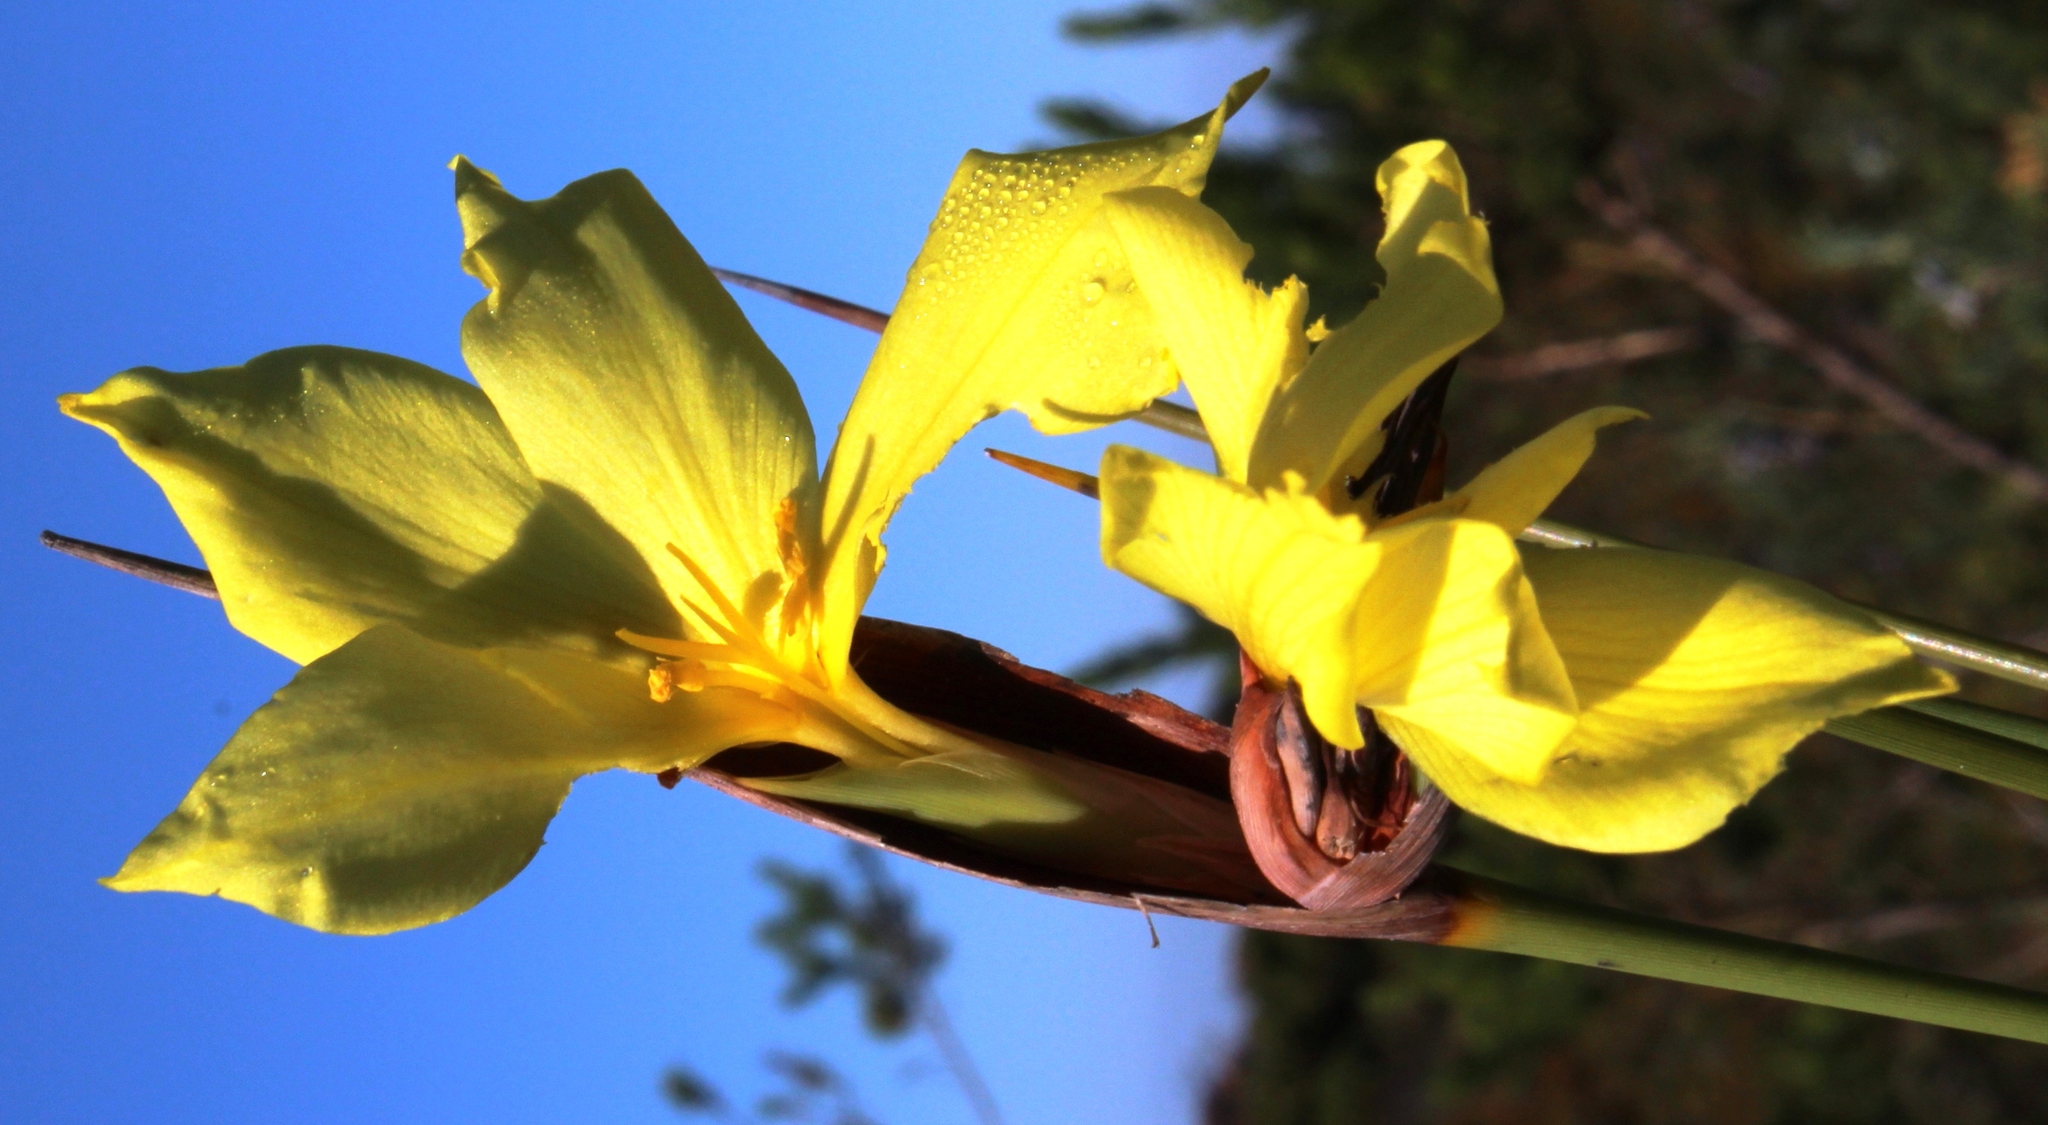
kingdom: Plantae
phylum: Tracheophyta
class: Liliopsida
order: Asparagales
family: Iridaceae
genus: Bobartia
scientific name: Bobartia macrospatha
